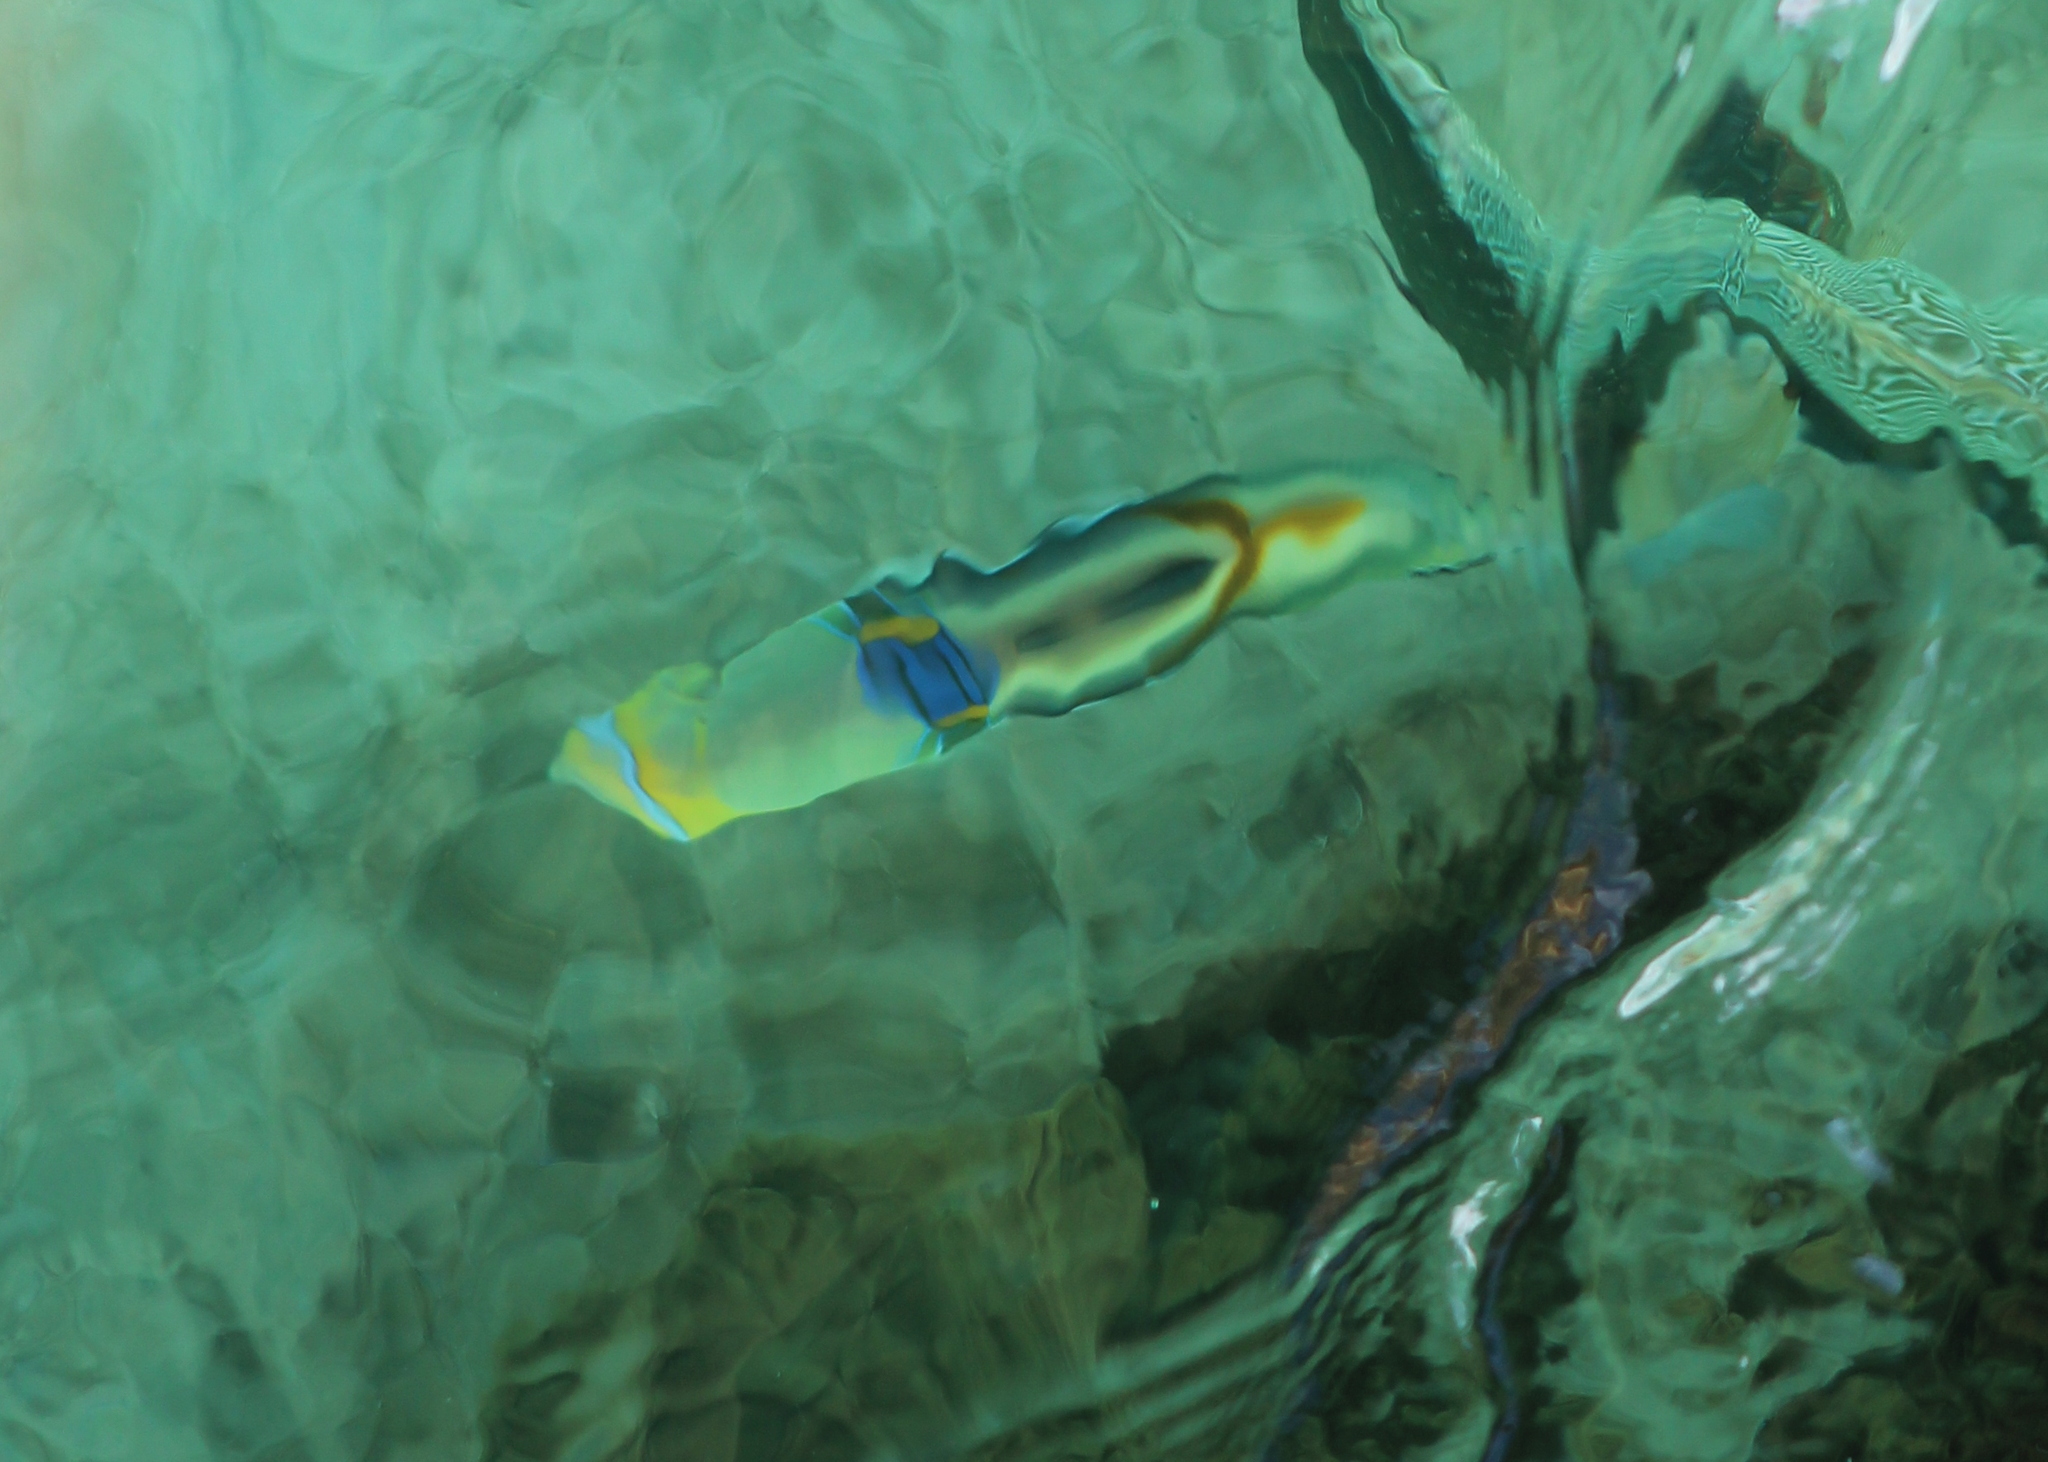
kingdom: Animalia
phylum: Chordata
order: Tetraodontiformes
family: Balistidae
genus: Rhinecanthus
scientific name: Rhinecanthus aculeatus
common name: White-banded triggerfish
